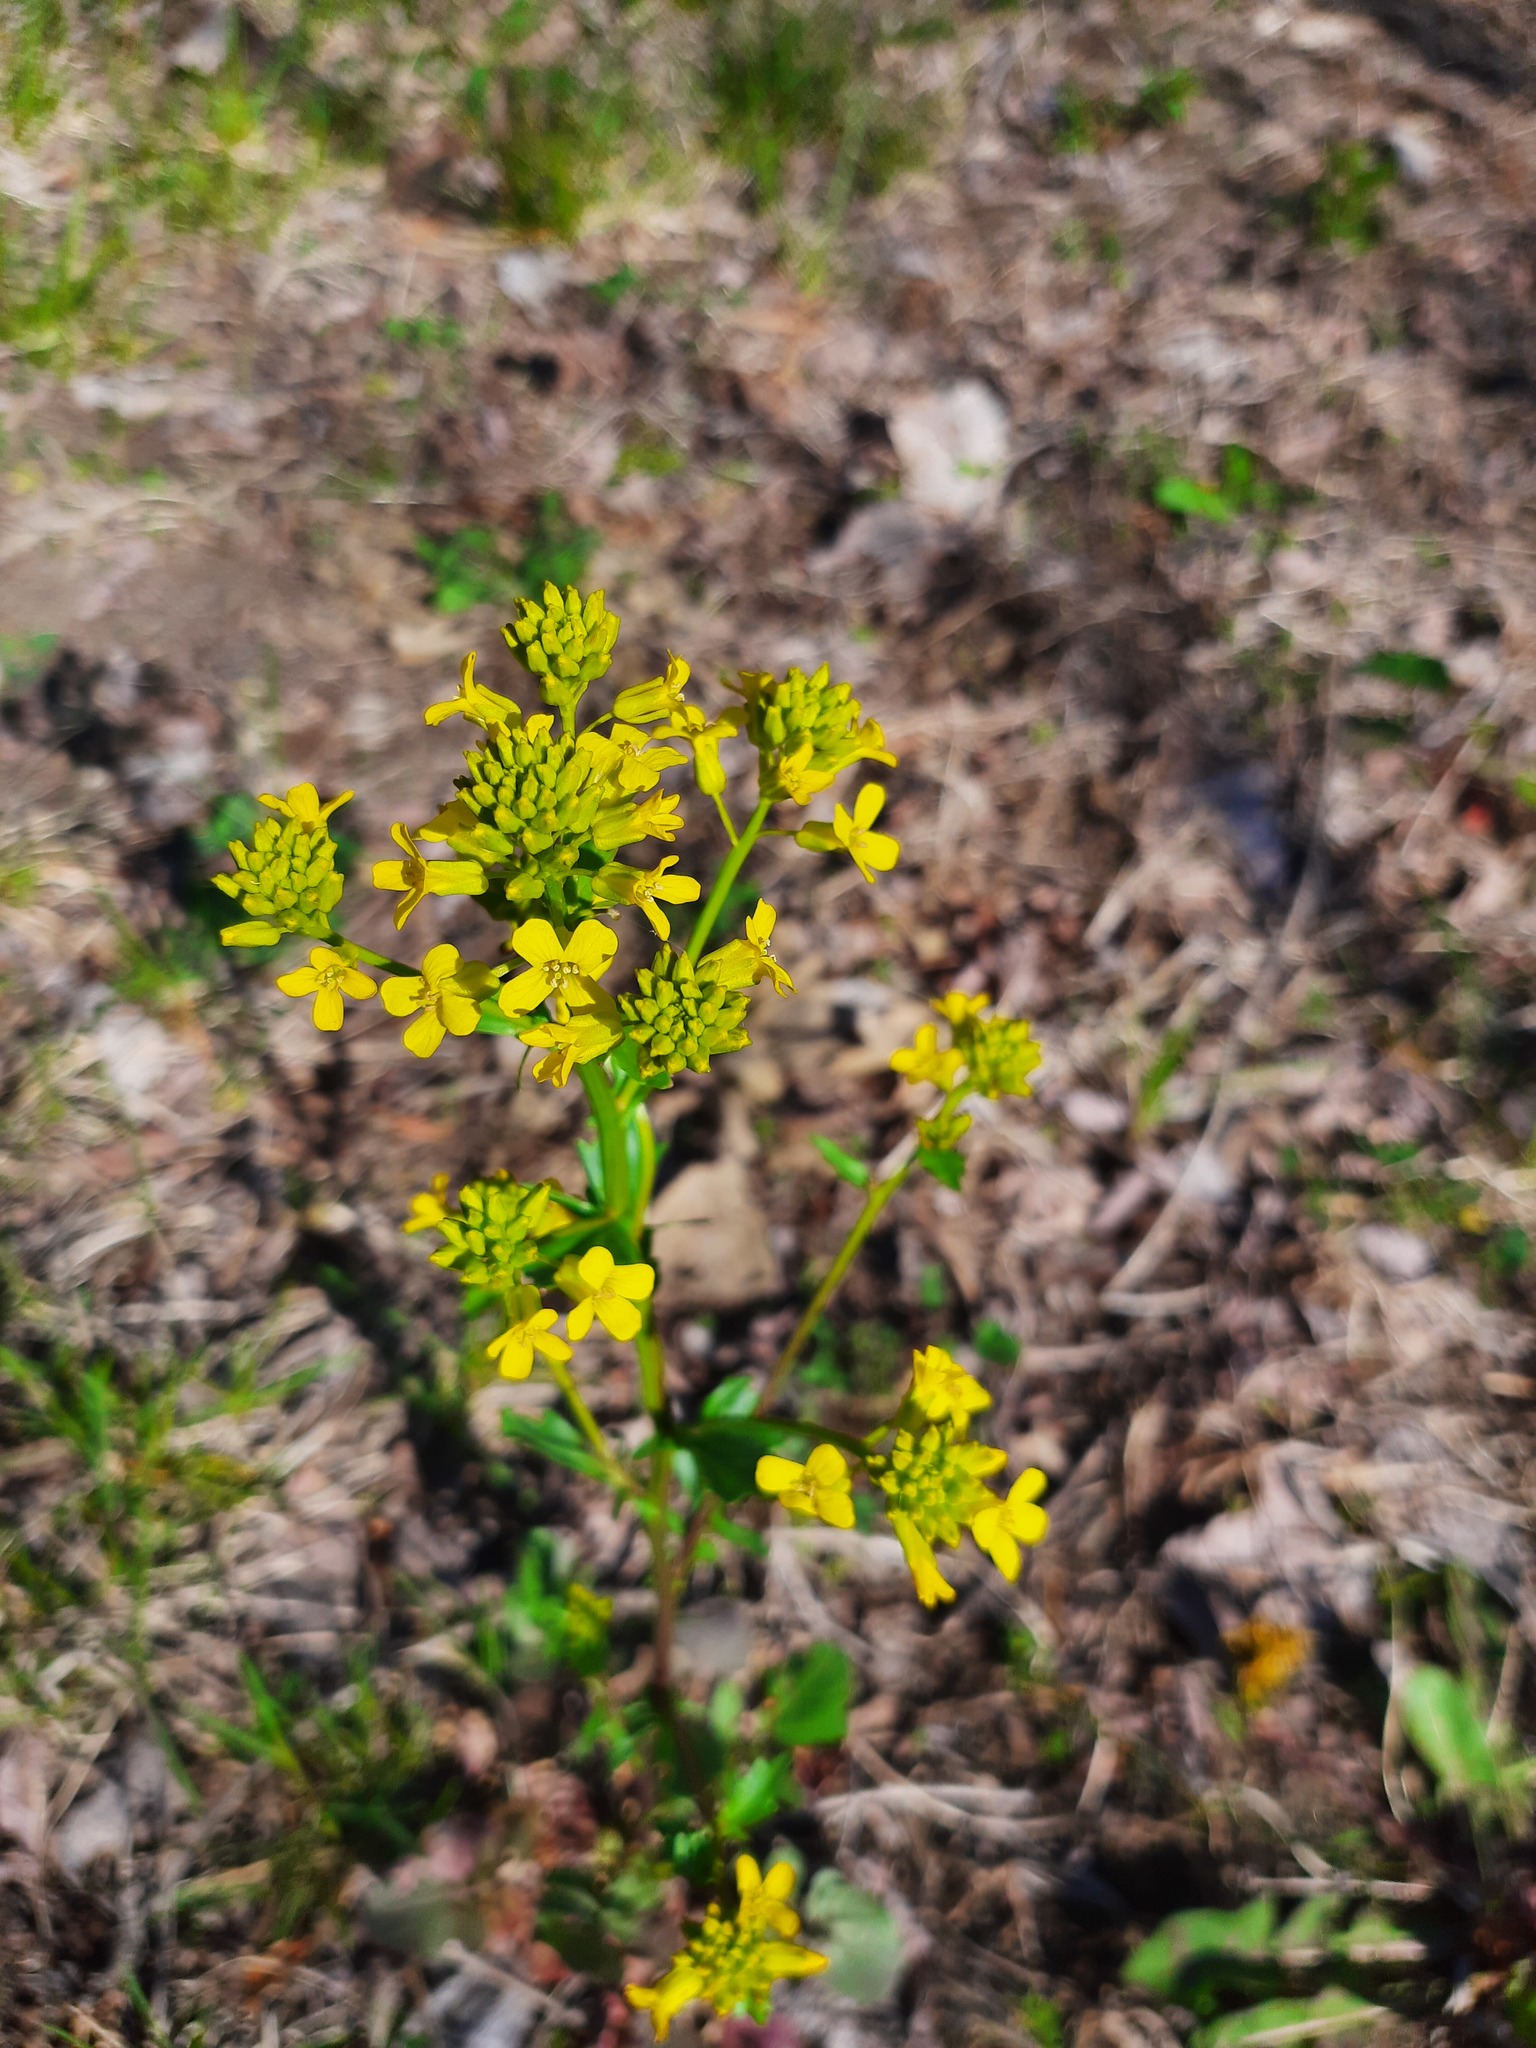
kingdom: Plantae
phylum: Tracheophyta
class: Magnoliopsida
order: Brassicales
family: Brassicaceae
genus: Barbarea
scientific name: Barbarea vulgaris
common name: Cressy-greens
